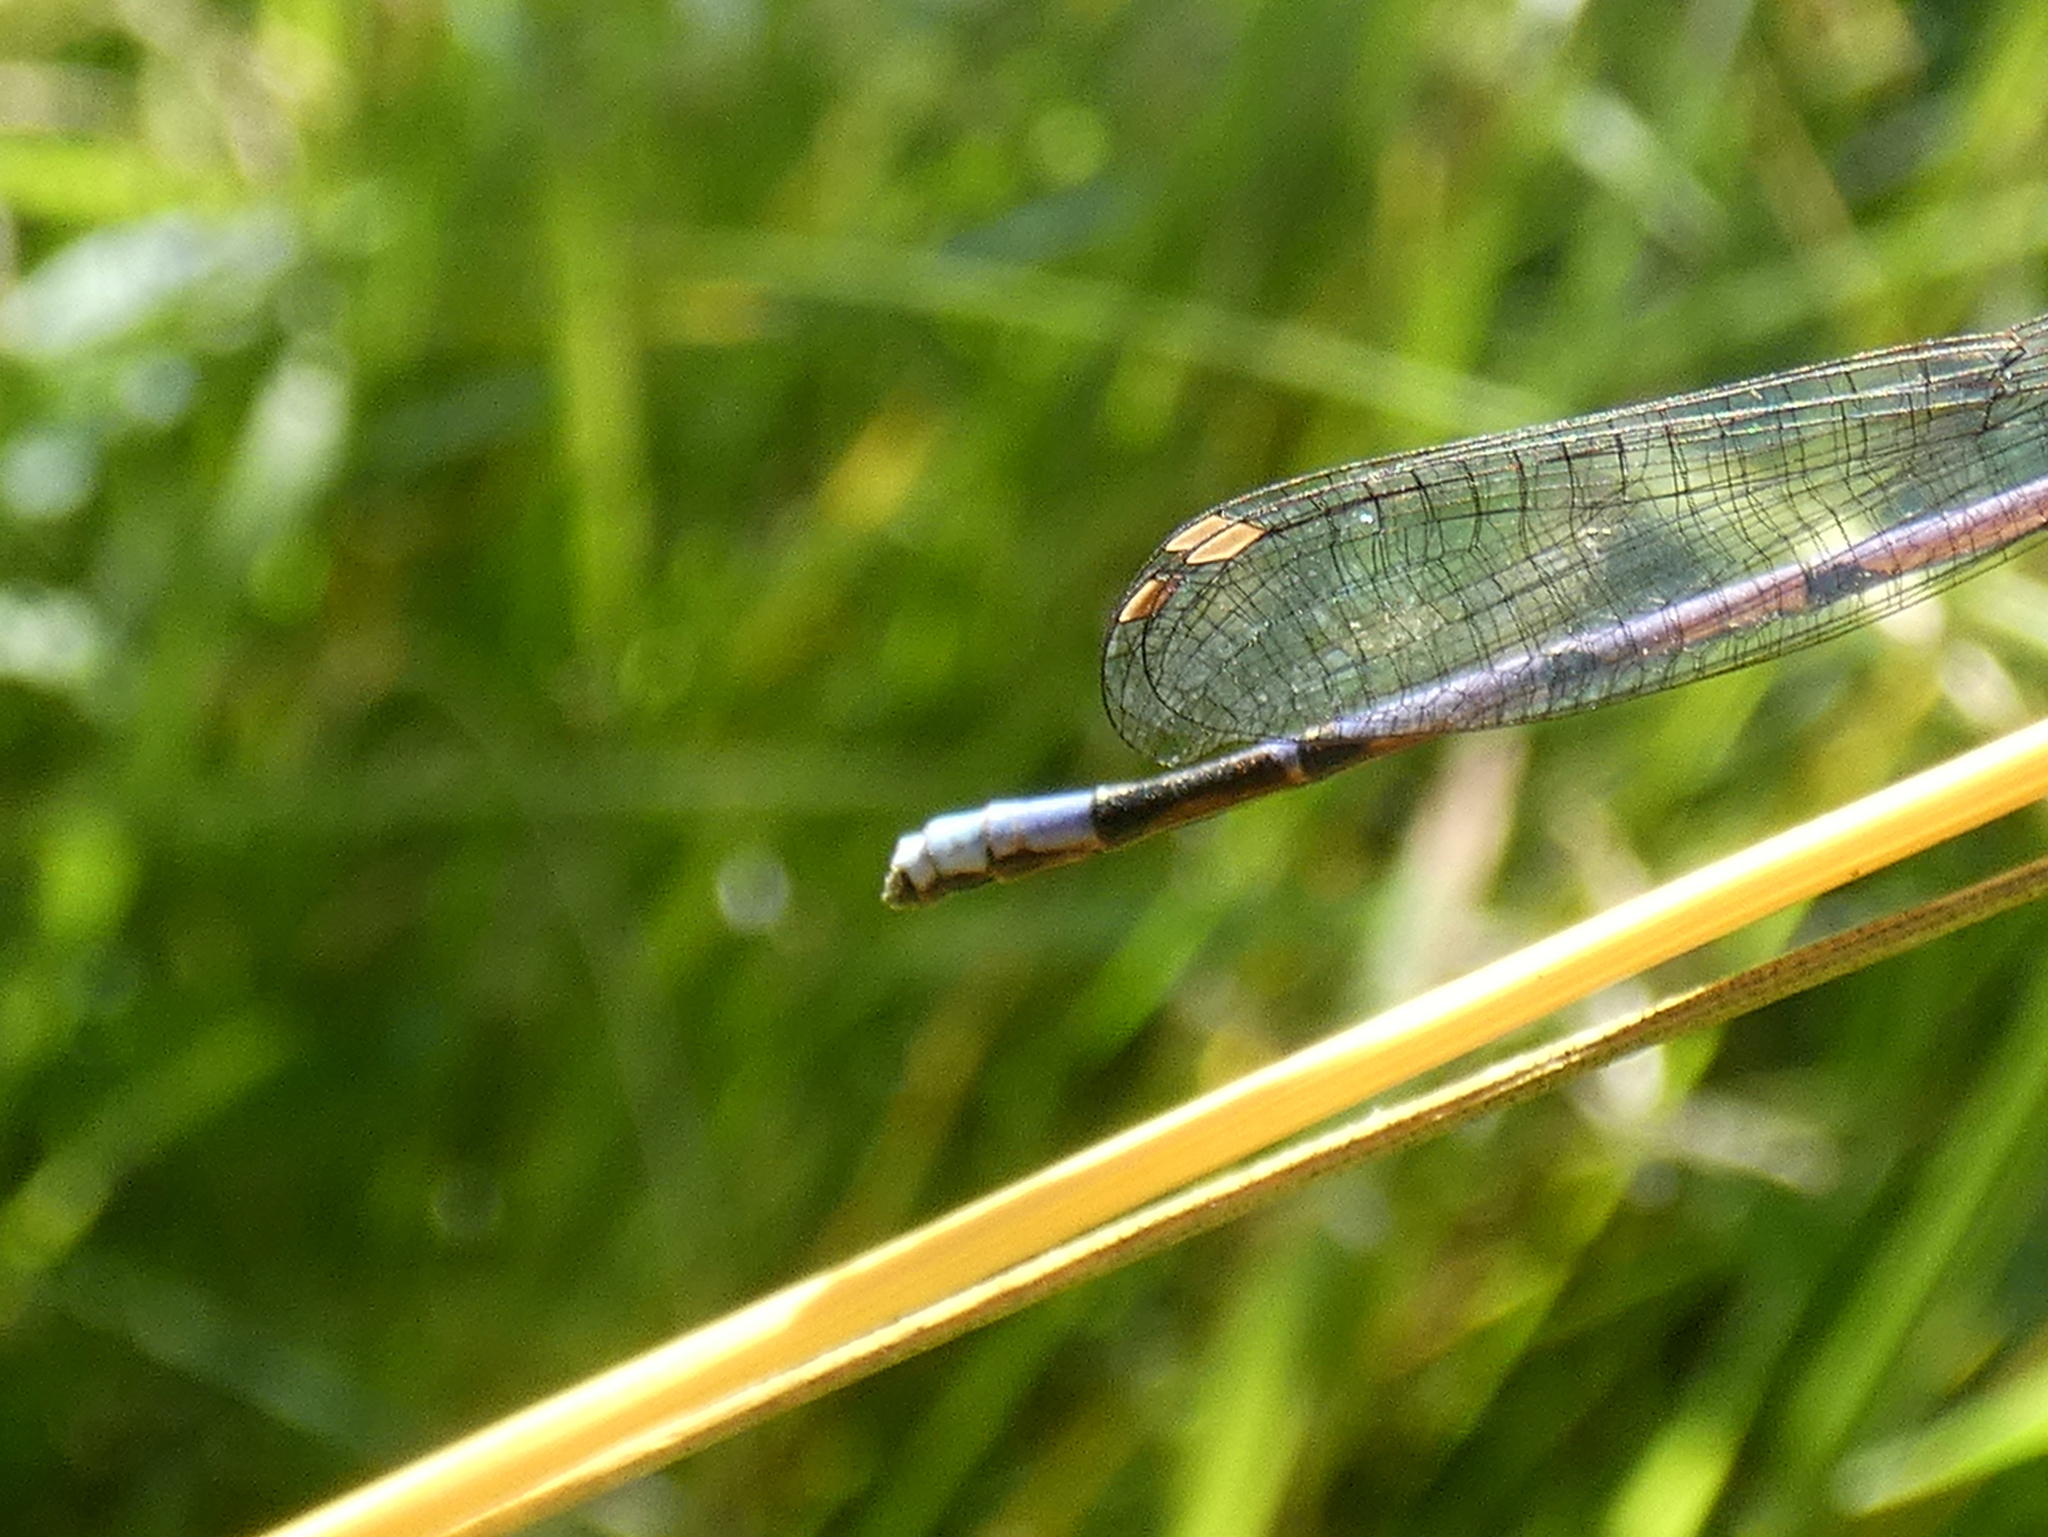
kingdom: Animalia
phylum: Arthropoda
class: Insecta
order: Odonata
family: Coenagrionidae
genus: Argia
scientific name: Argia fumipennis
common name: Variable dancer
